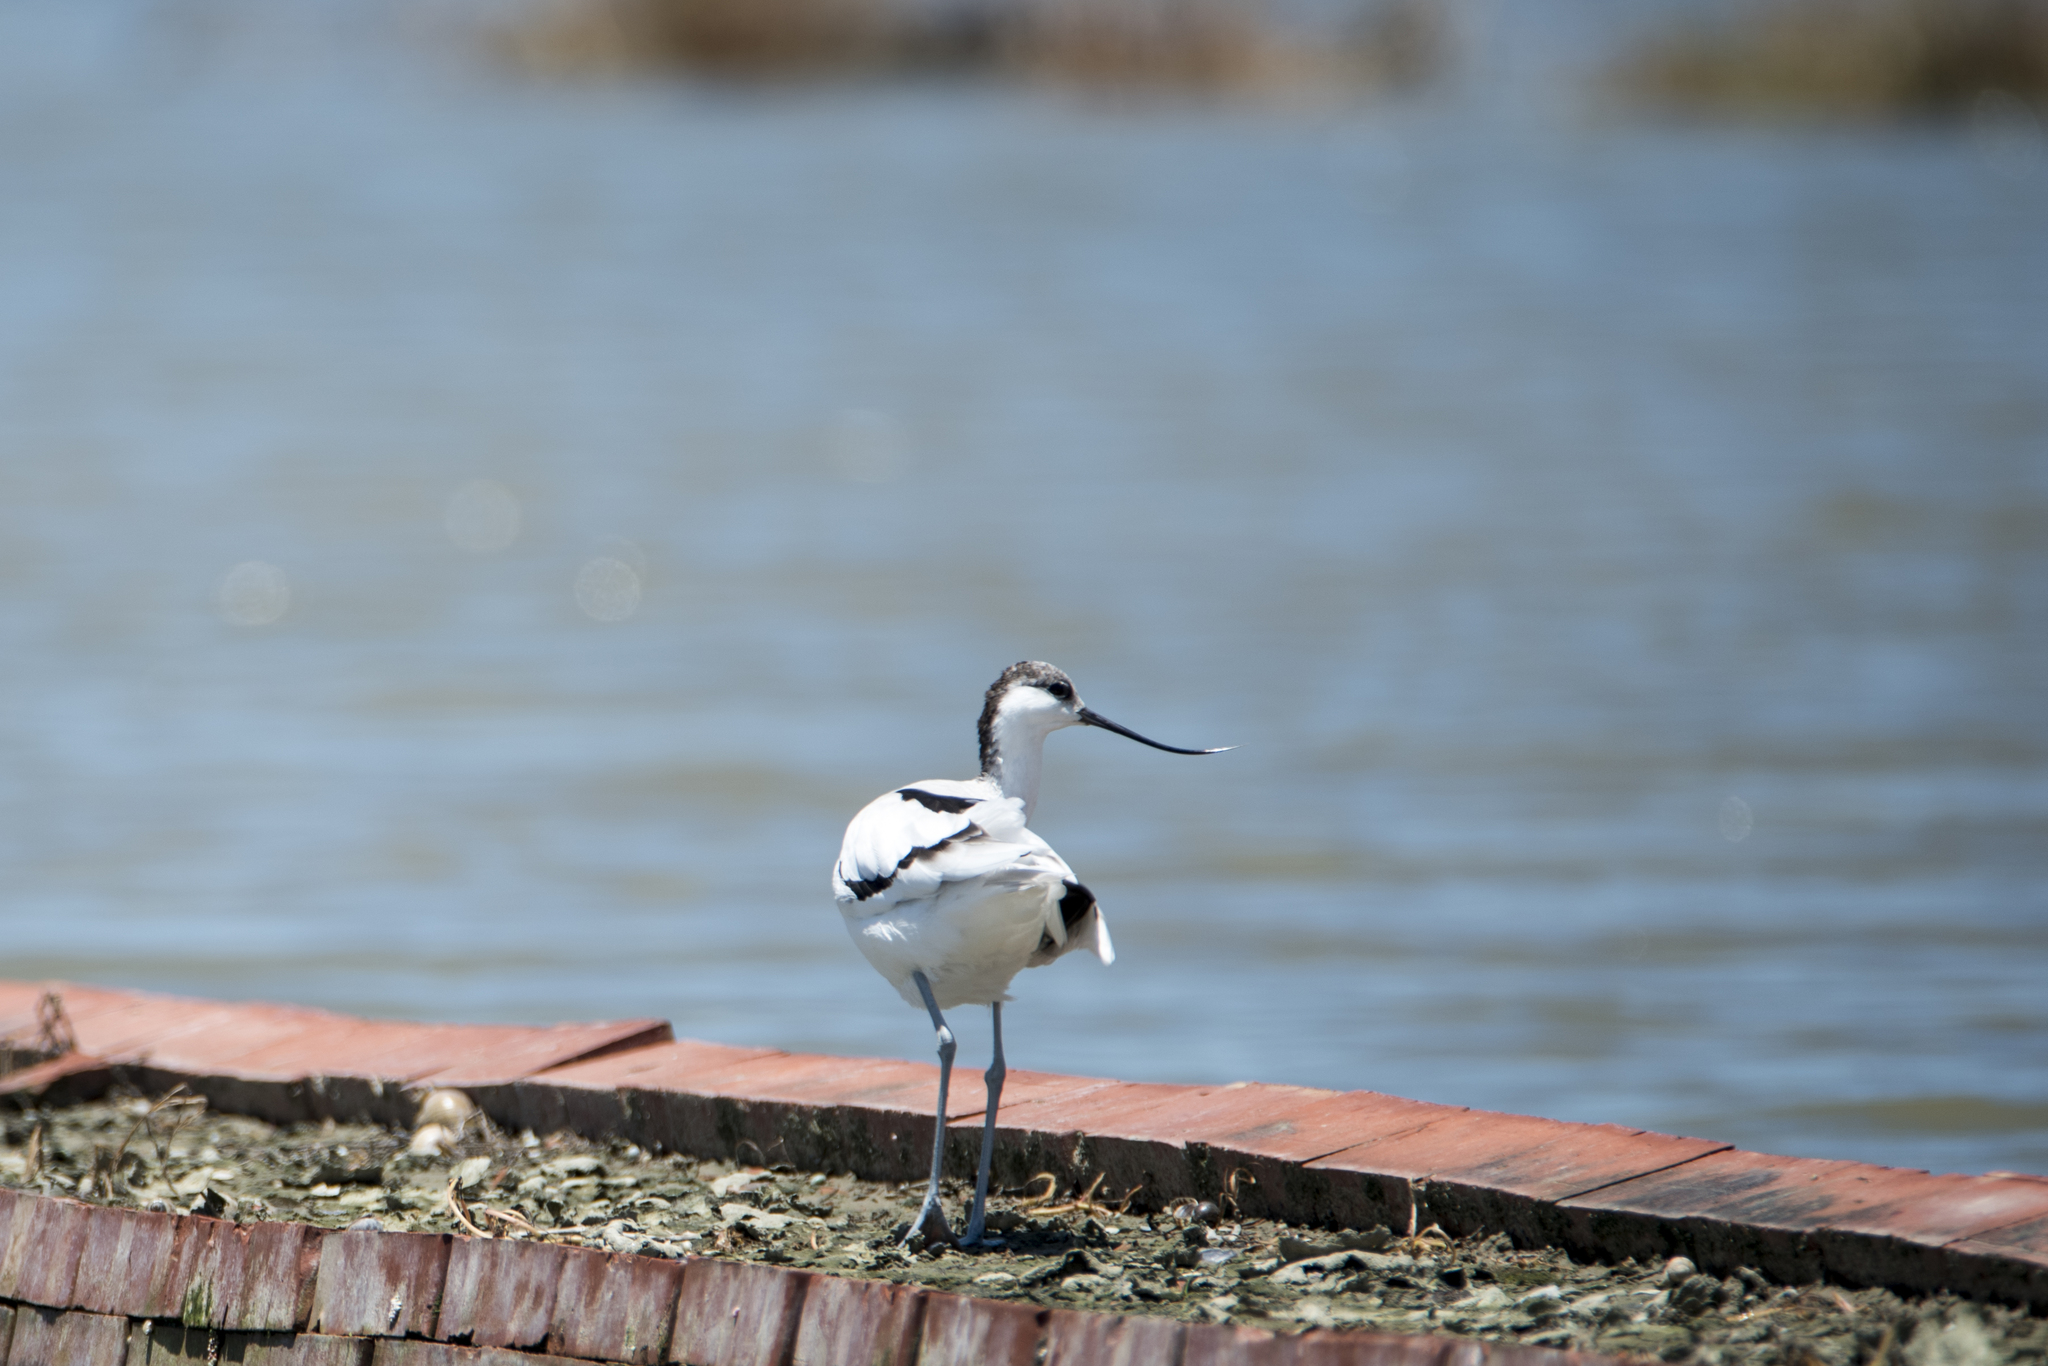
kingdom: Animalia
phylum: Chordata
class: Aves
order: Charadriiformes
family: Recurvirostridae
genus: Recurvirostra
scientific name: Recurvirostra avosetta
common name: Pied avocet
